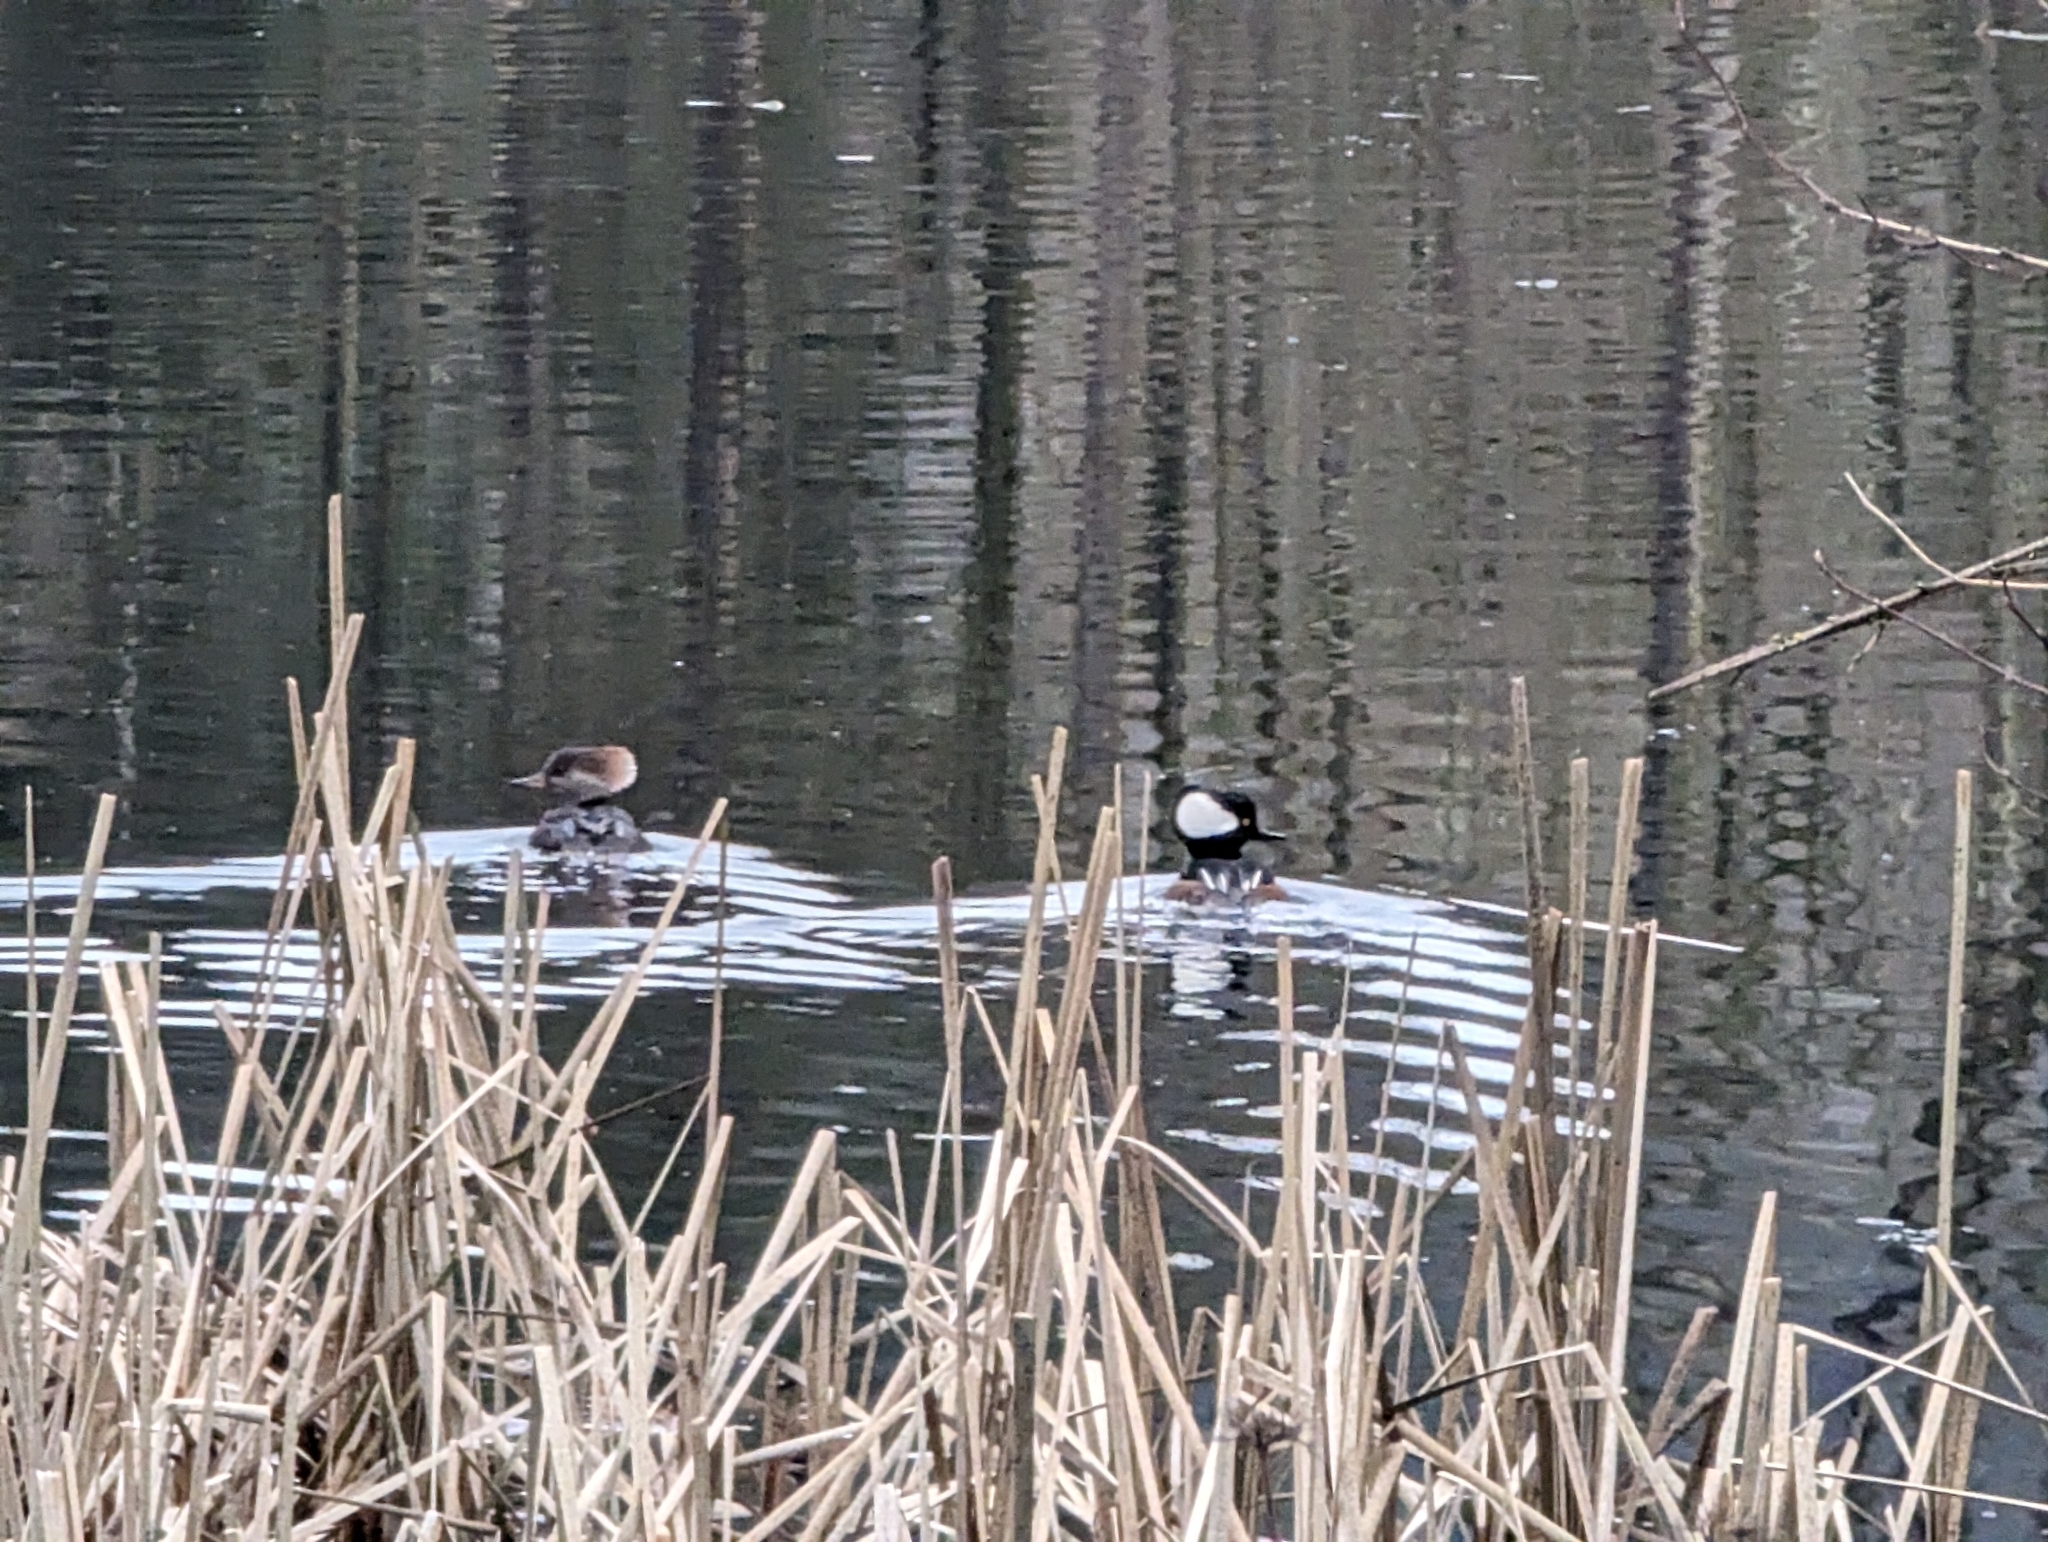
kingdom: Animalia
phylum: Chordata
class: Aves
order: Anseriformes
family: Anatidae
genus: Lophodytes
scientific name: Lophodytes cucullatus
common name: Hooded merganser
